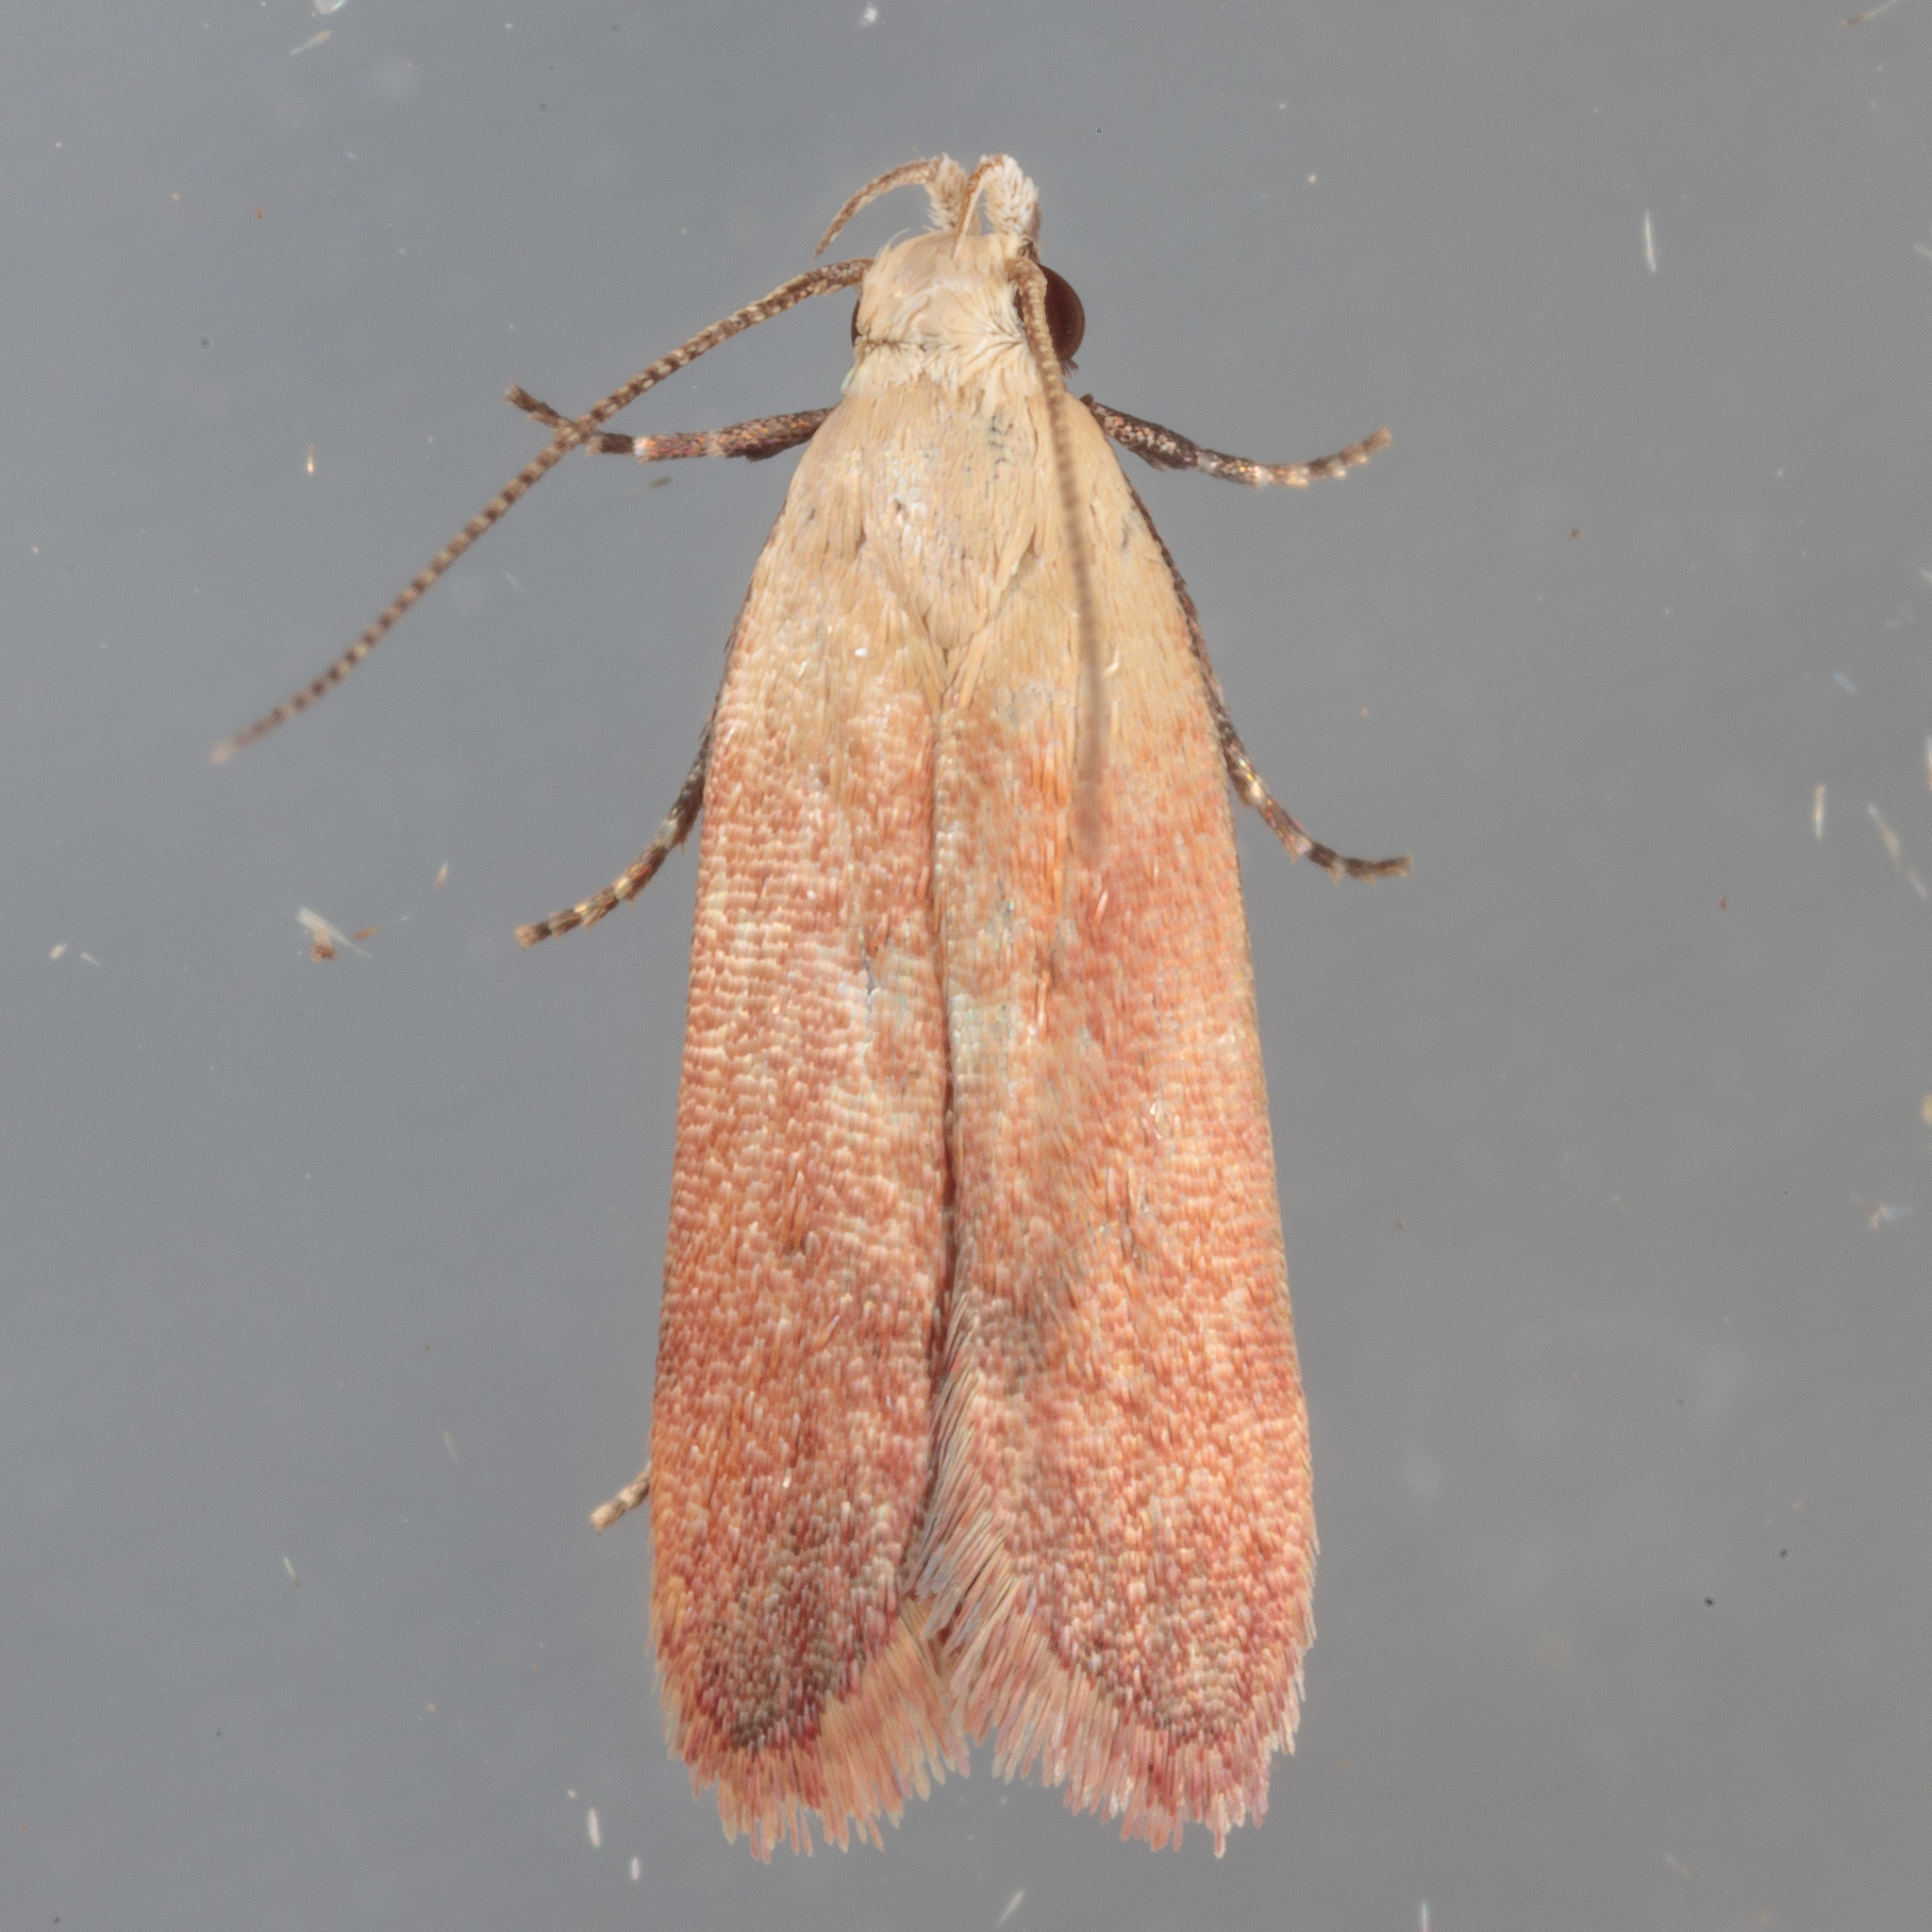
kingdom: Animalia
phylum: Arthropoda
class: Insecta
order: Lepidoptera
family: Gelechiidae
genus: Anacampsis
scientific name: Anacampsis fullonella
